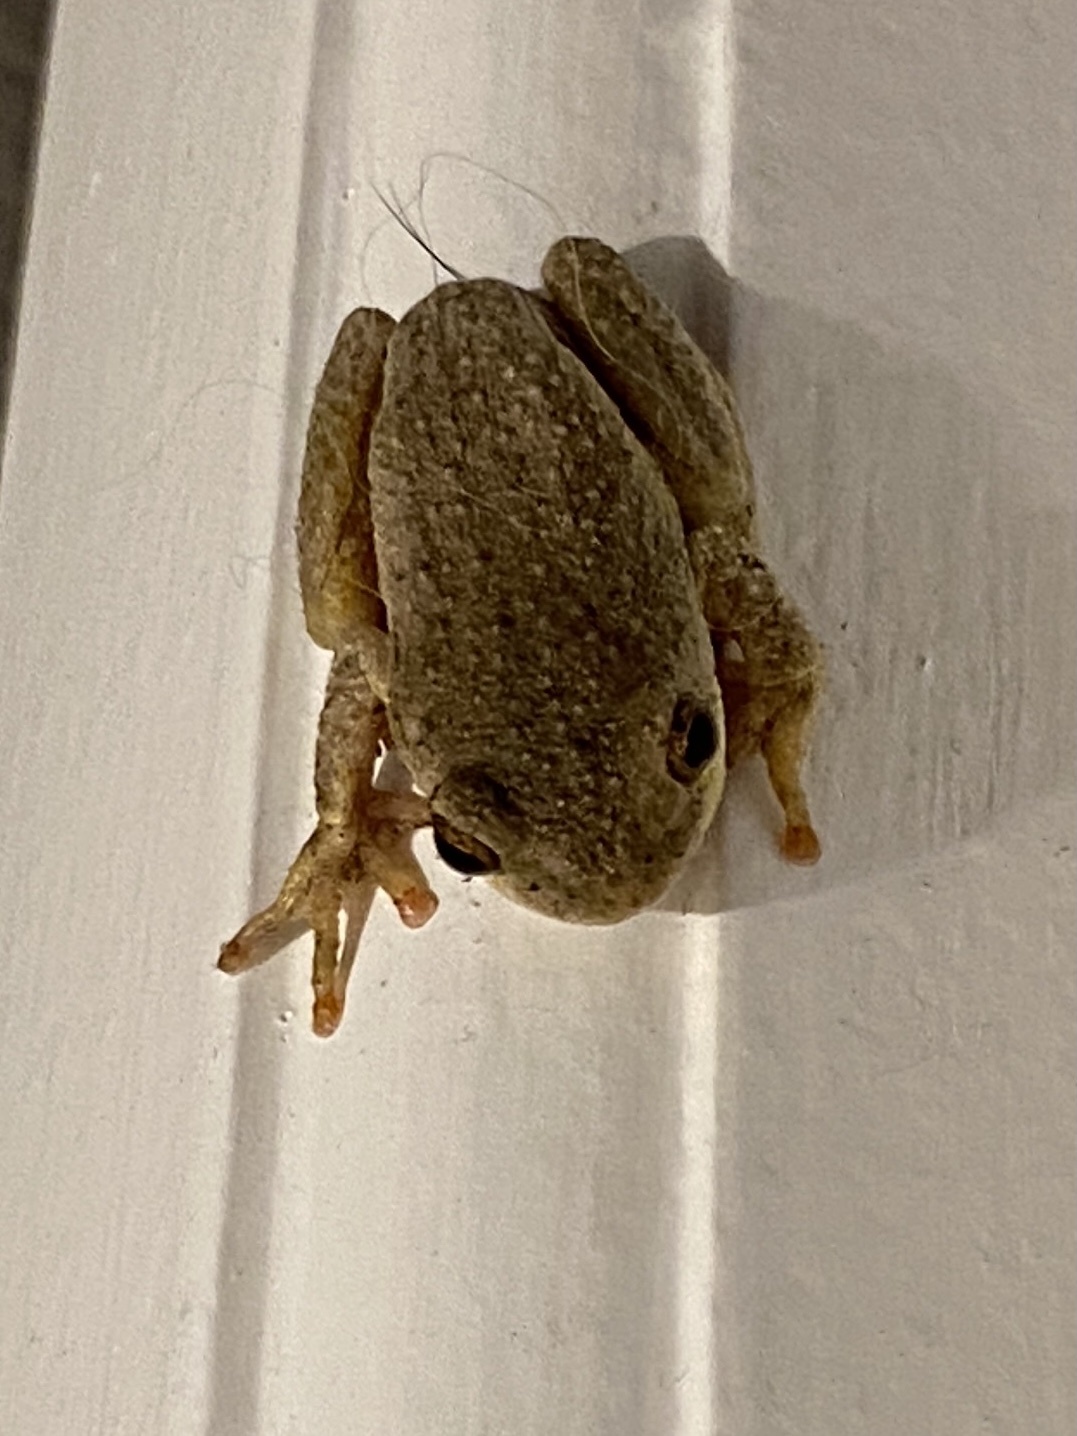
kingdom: Animalia
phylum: Chordata
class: Amphibia
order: Anura
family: Hyperoliidae
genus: Hyperolius
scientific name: Hyperolius marmoratus
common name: Painted reed frog
